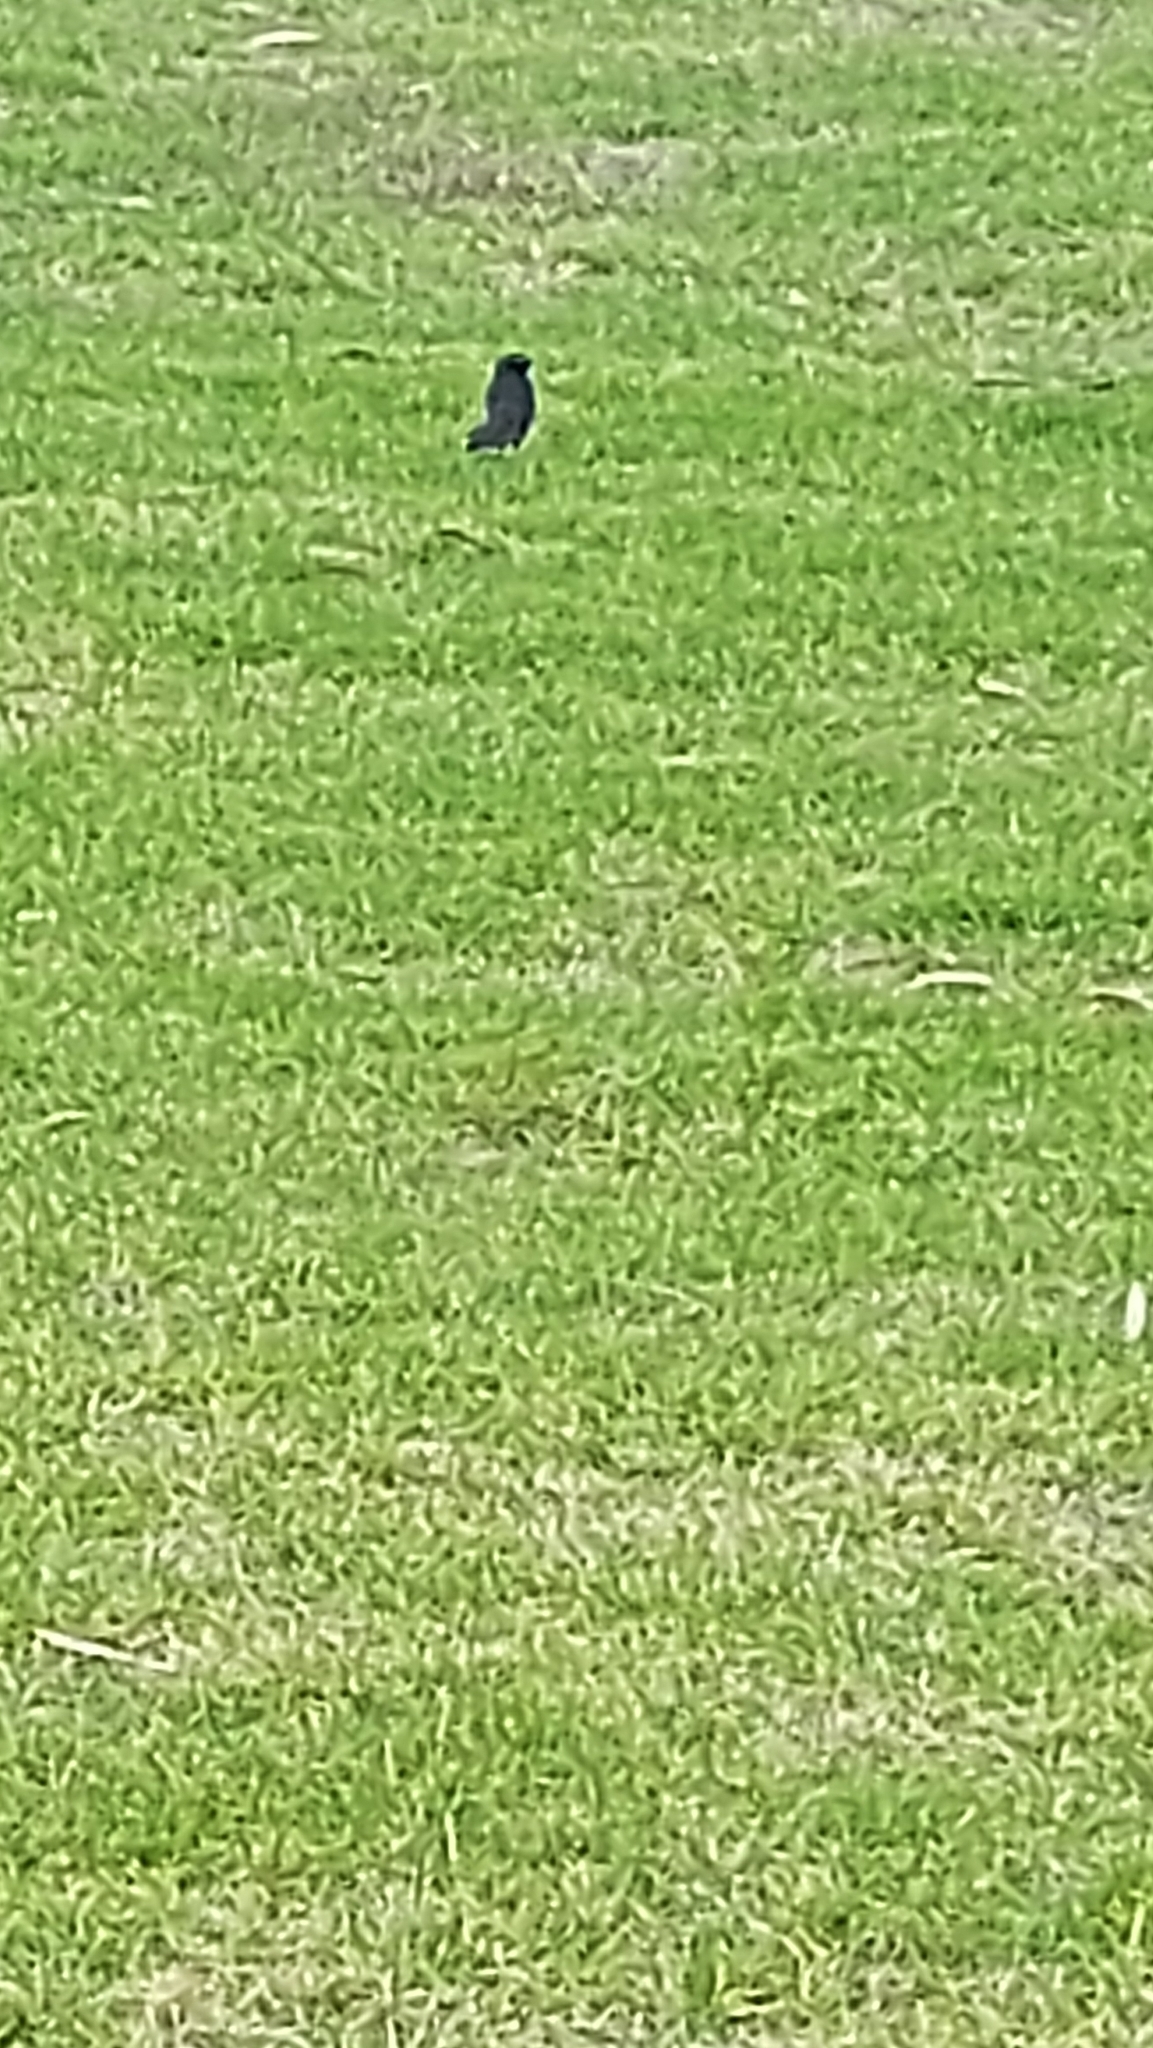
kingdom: Animalia
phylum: Chordata
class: Aves
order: Passeriformes
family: Rhipiduridae
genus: Rhipidura
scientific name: Rhipidura leucophrys
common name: Willie wagtail
